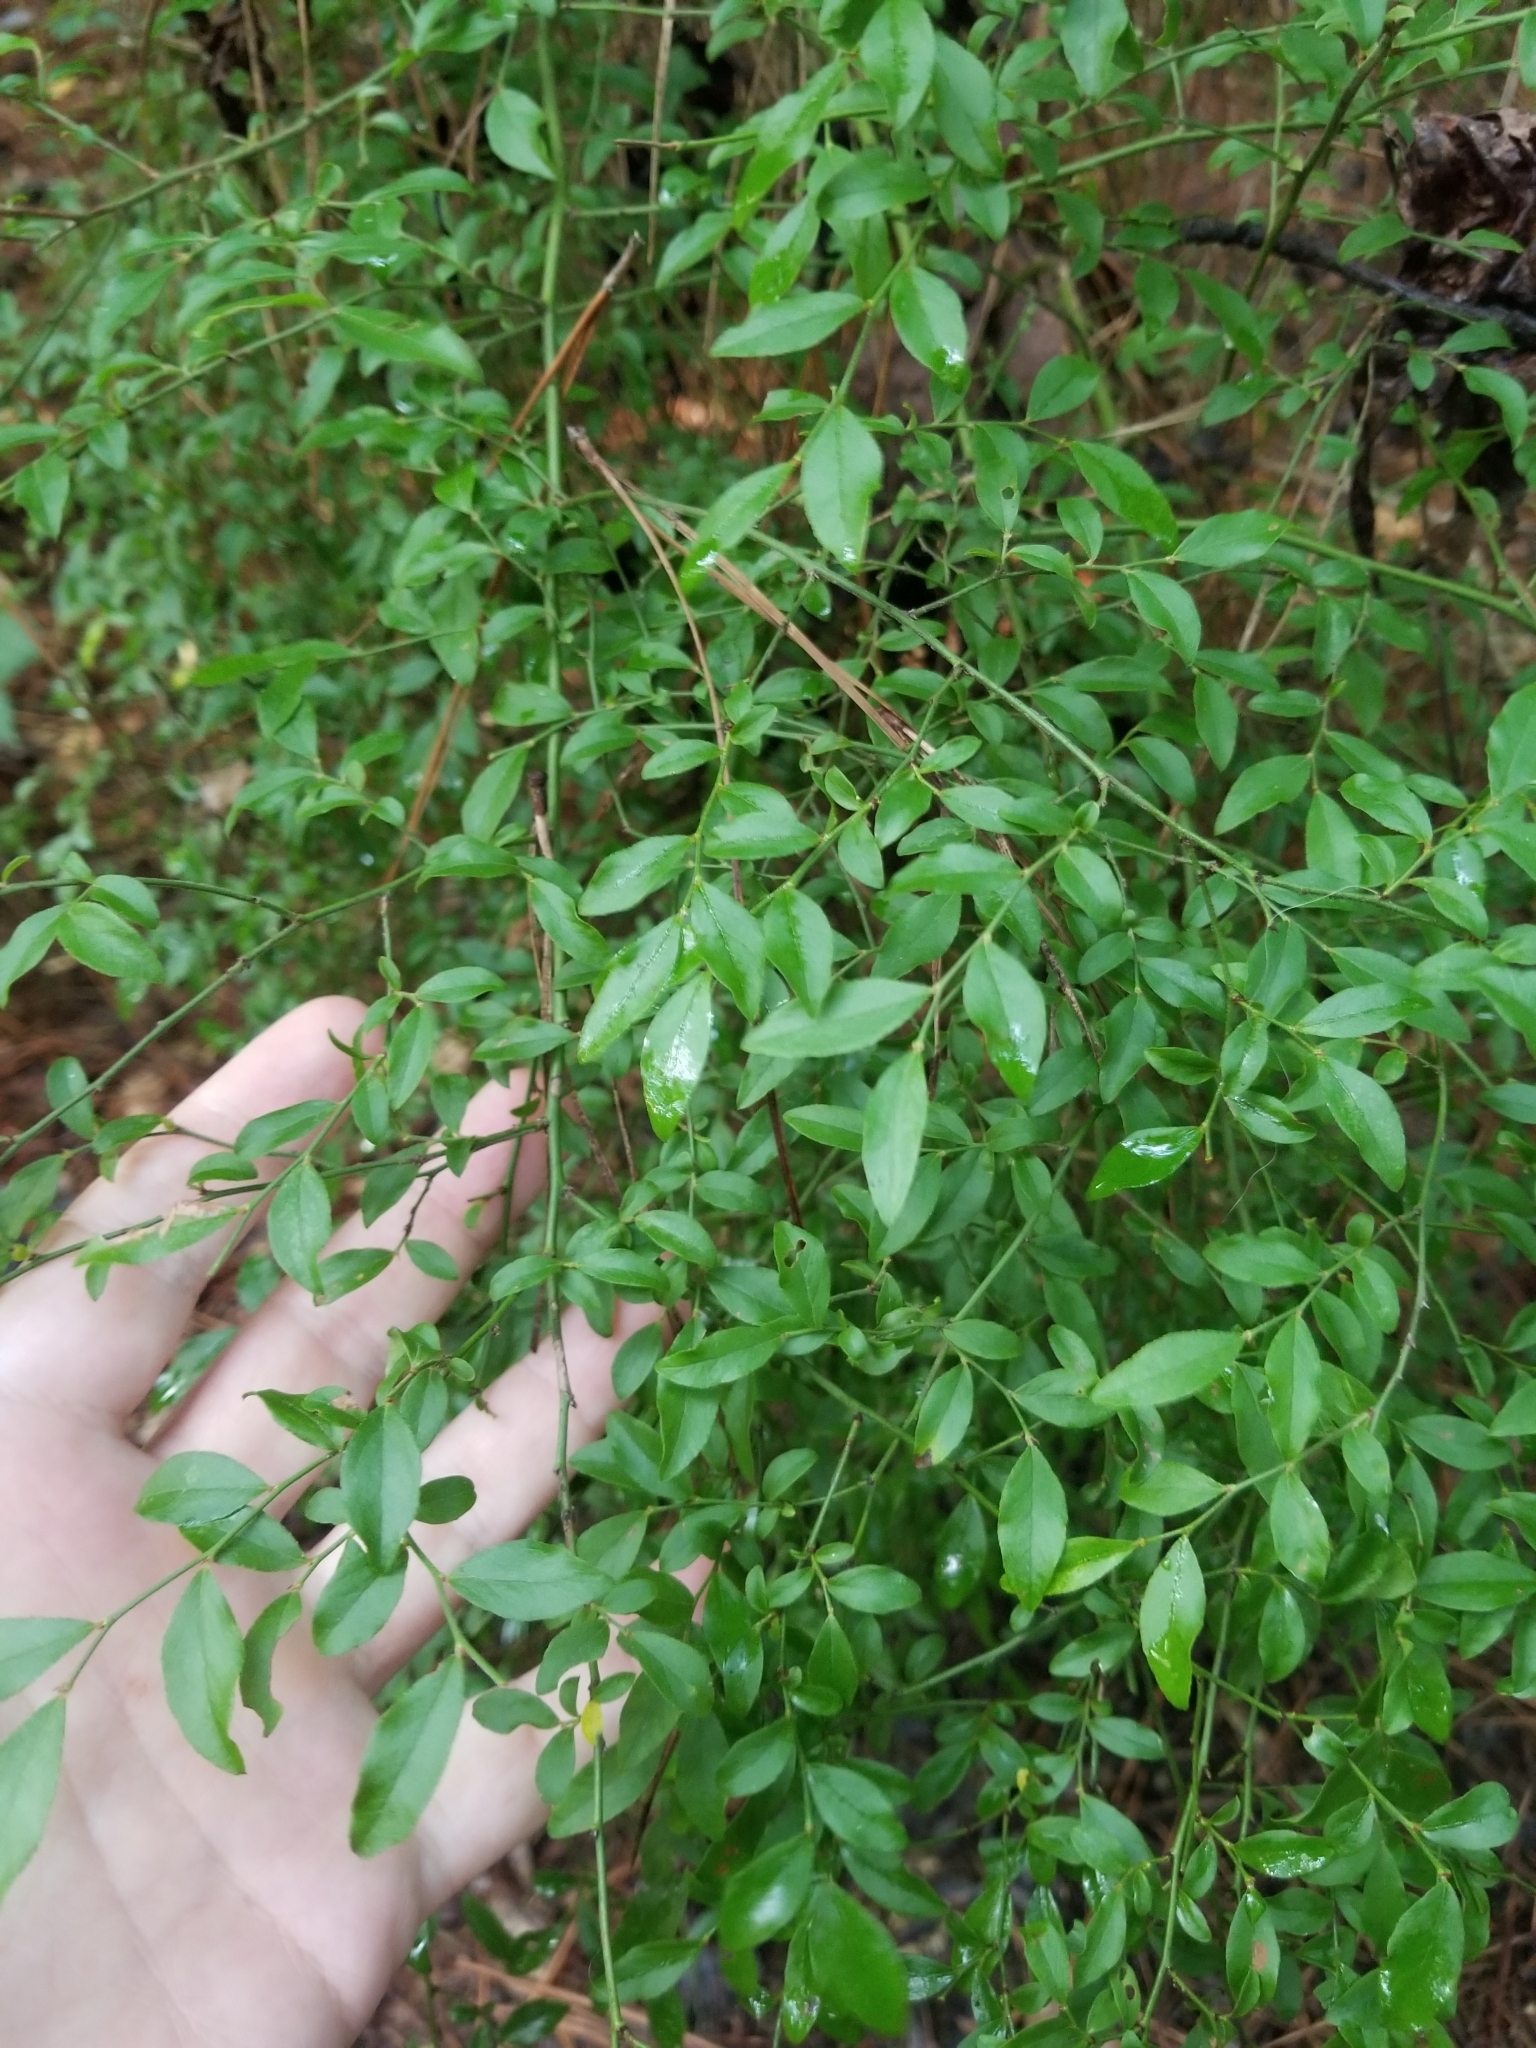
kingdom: Plantae
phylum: Tracheophyta
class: Magnoliopsida
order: Ericales
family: Ericaceae
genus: Vaccinium
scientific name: Vaccinium corymbosum
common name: Blueberry
